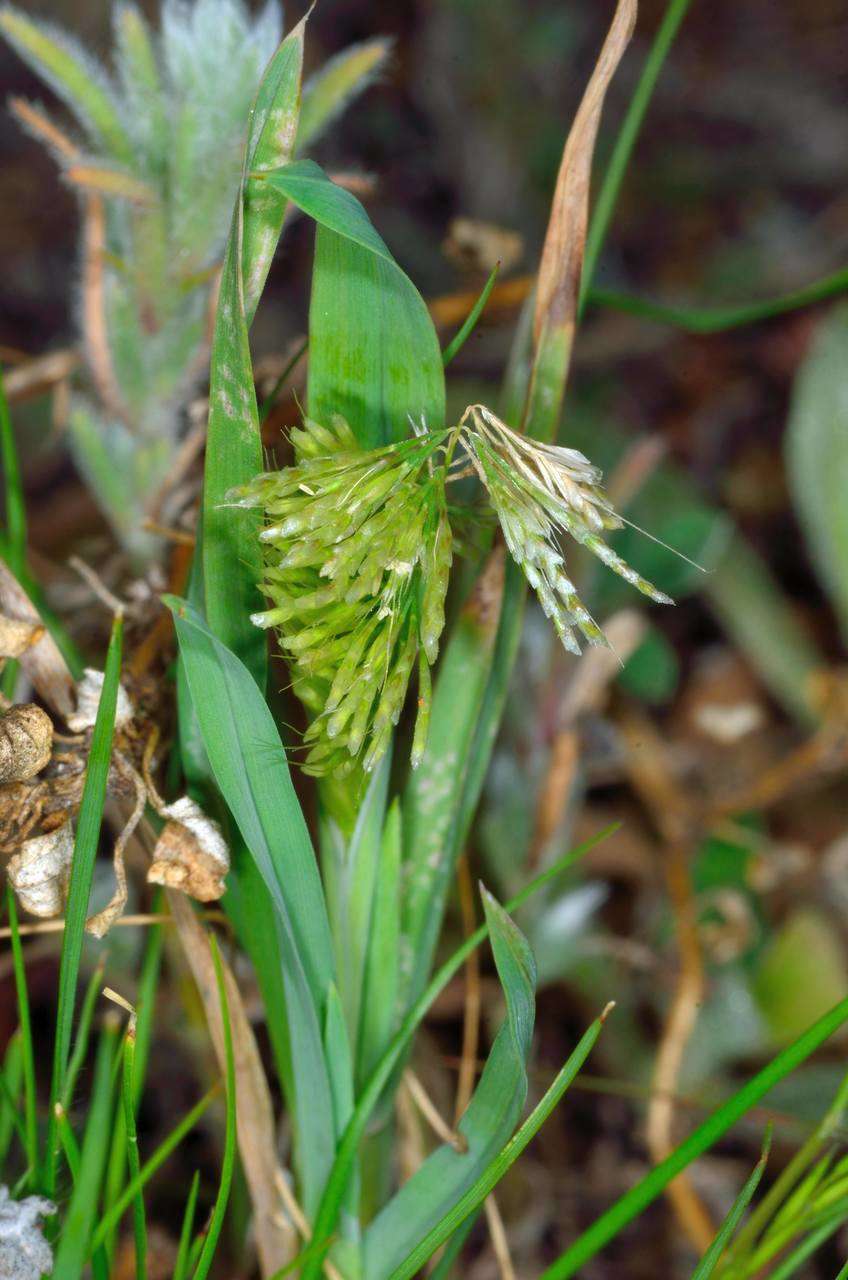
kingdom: Plantae
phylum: Tracheophyta
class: Liliopsida
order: Poales
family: Poaceae
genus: Lamarckia
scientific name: Lamarckia aurea
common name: Golden dog's-tail
